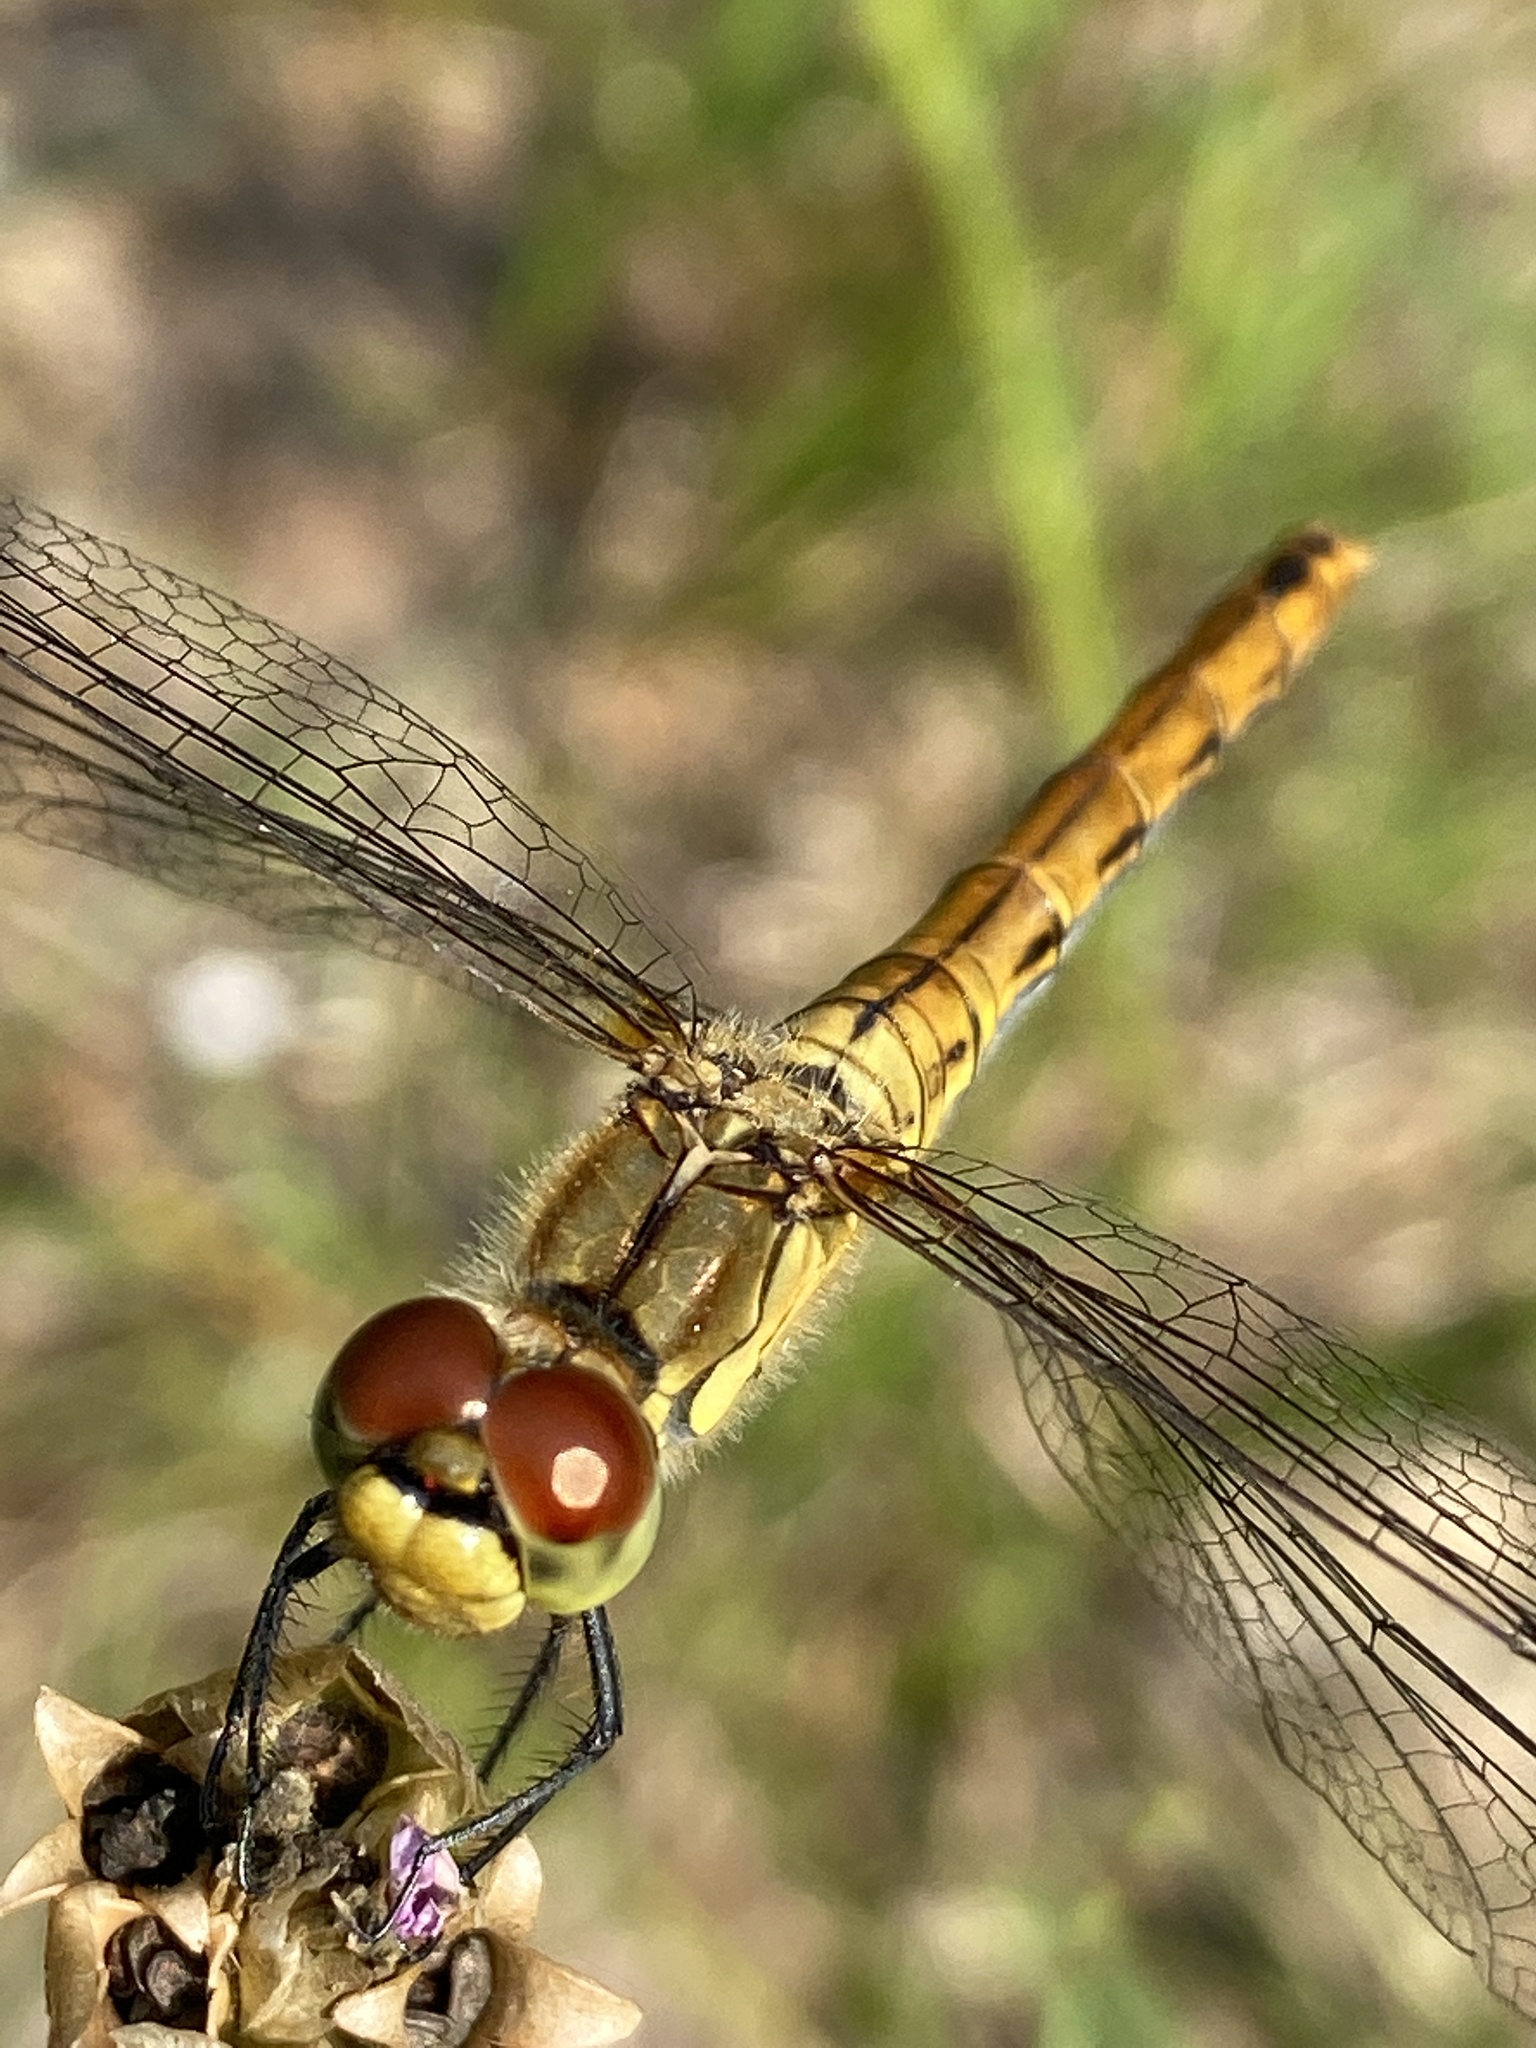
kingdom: Animalia
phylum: Arthropoda
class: Insecta
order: Odonata
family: Libellulidae
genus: Sympetrum
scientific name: Sympetrum sanguineum
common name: Ruddy darter
